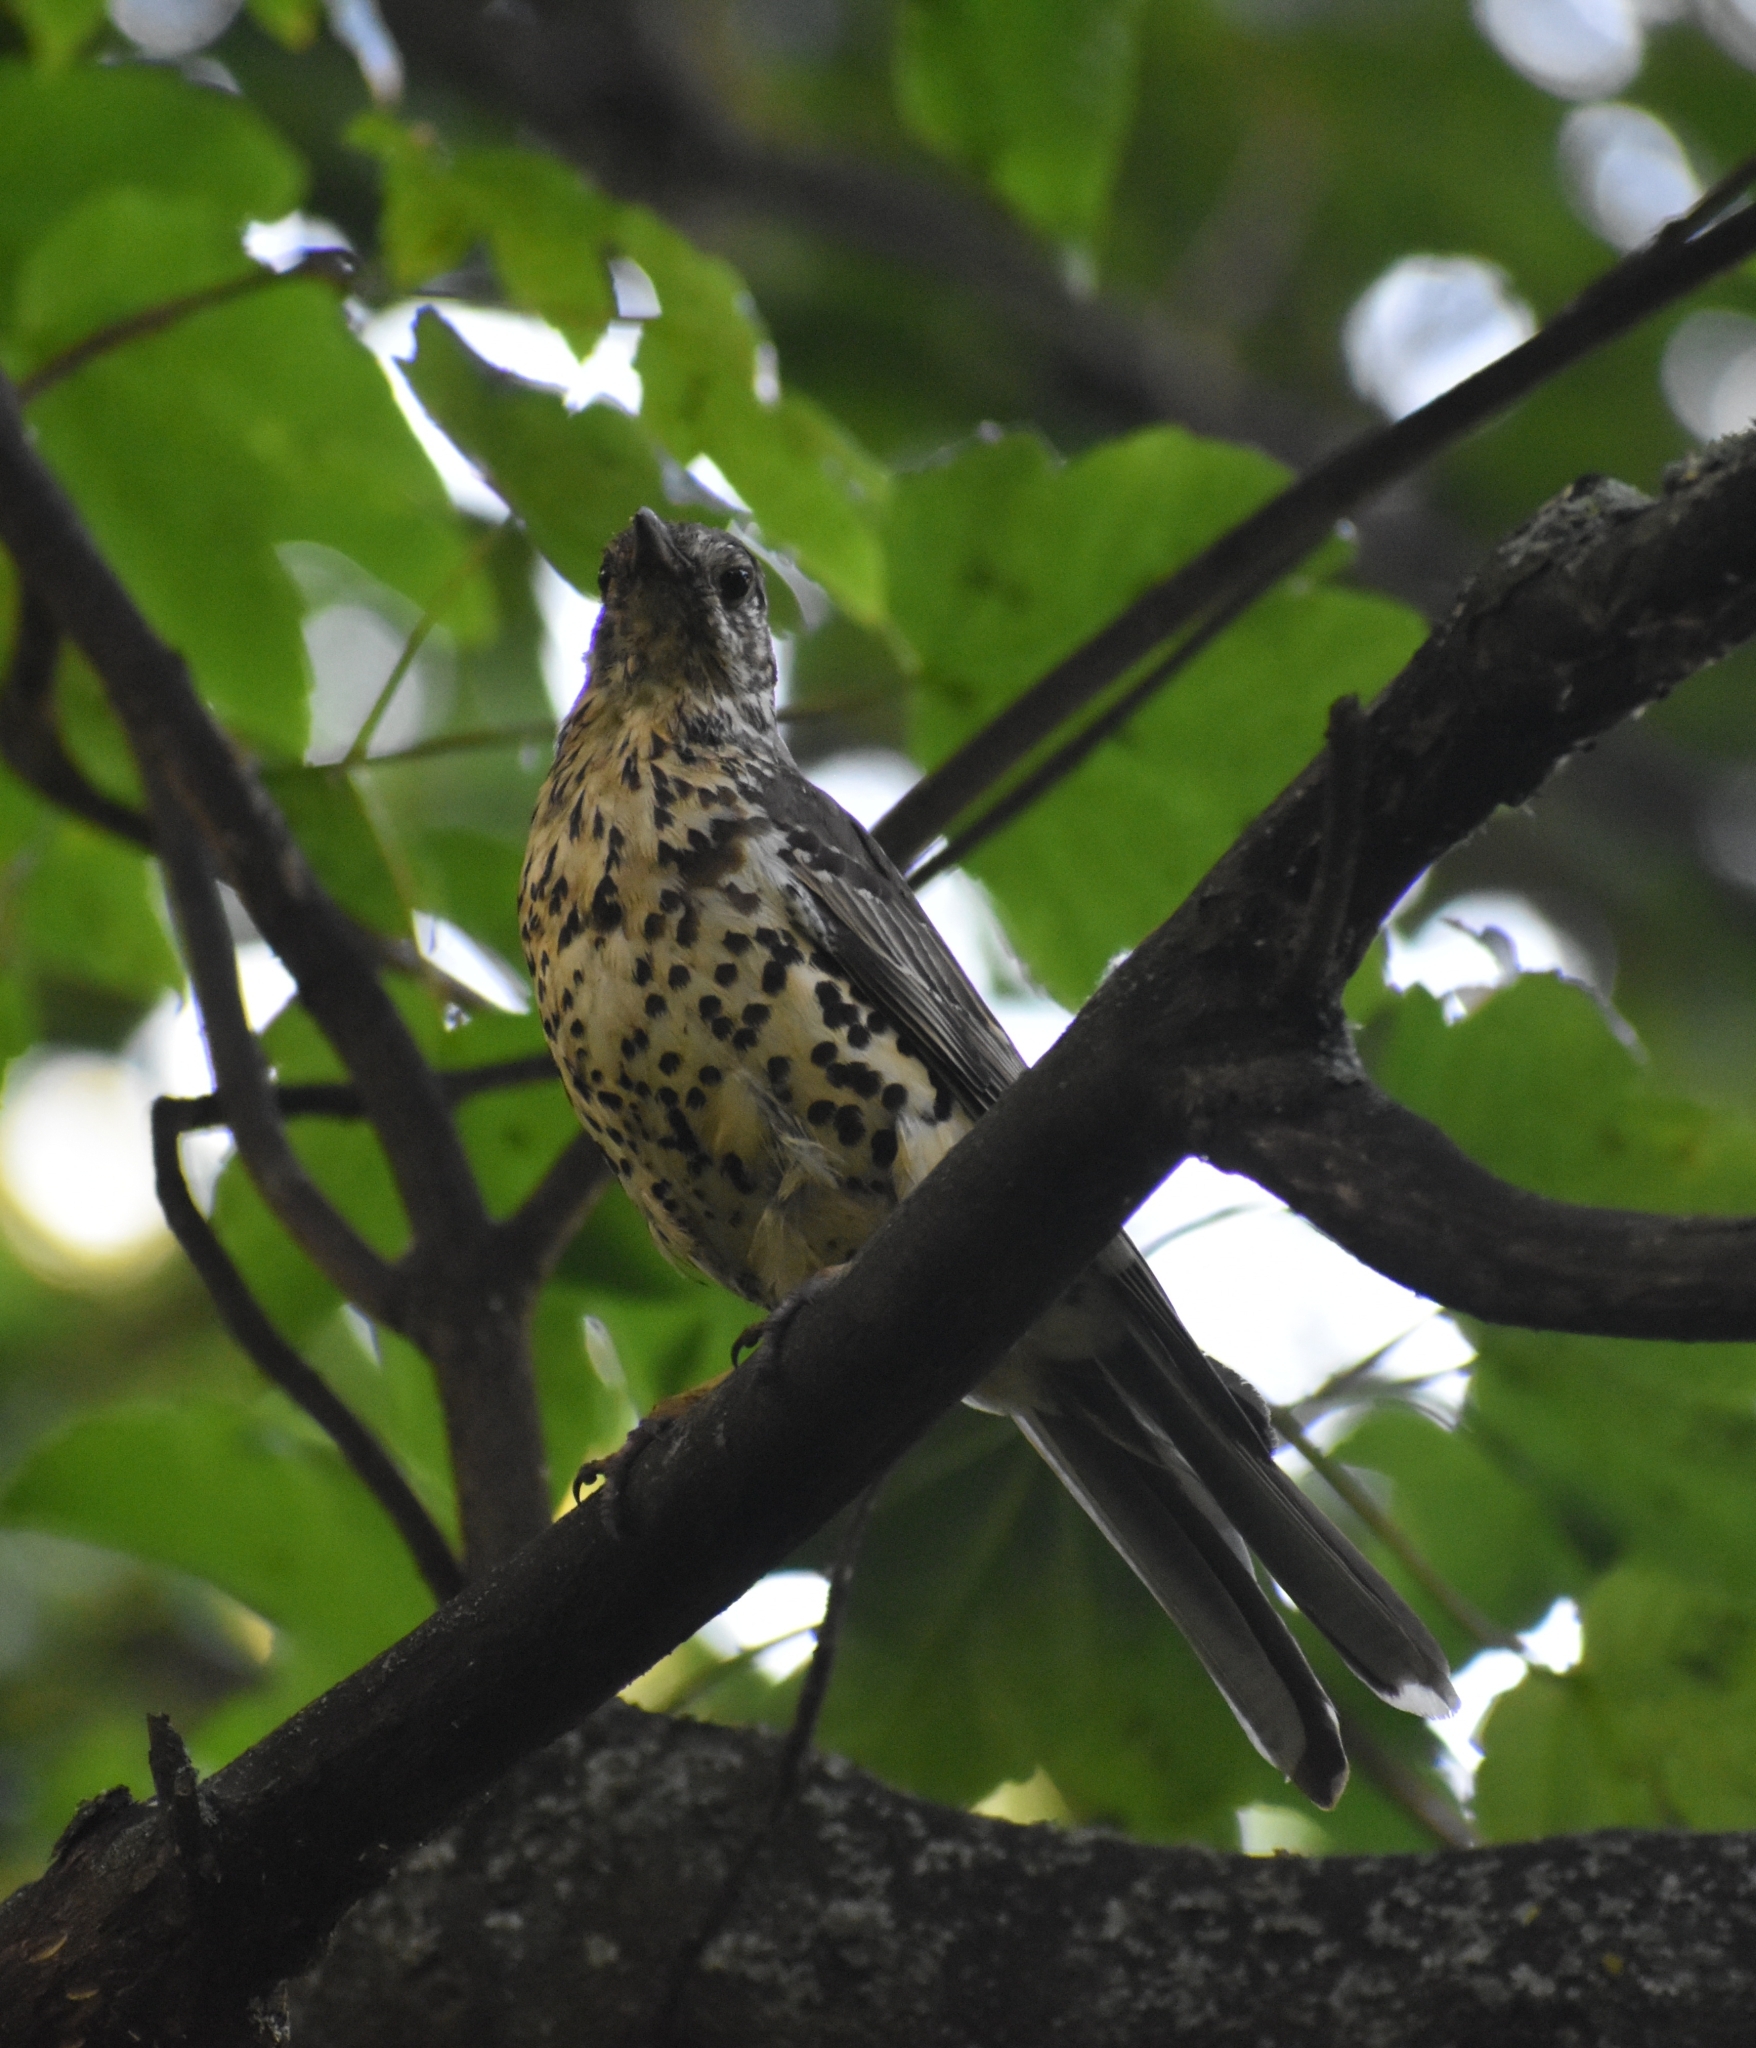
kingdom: Animalia
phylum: Chordata
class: Aves
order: Passeriformes
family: Turdidae
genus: Turdus
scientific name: Turdus viscivorus
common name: Mistle thrush
